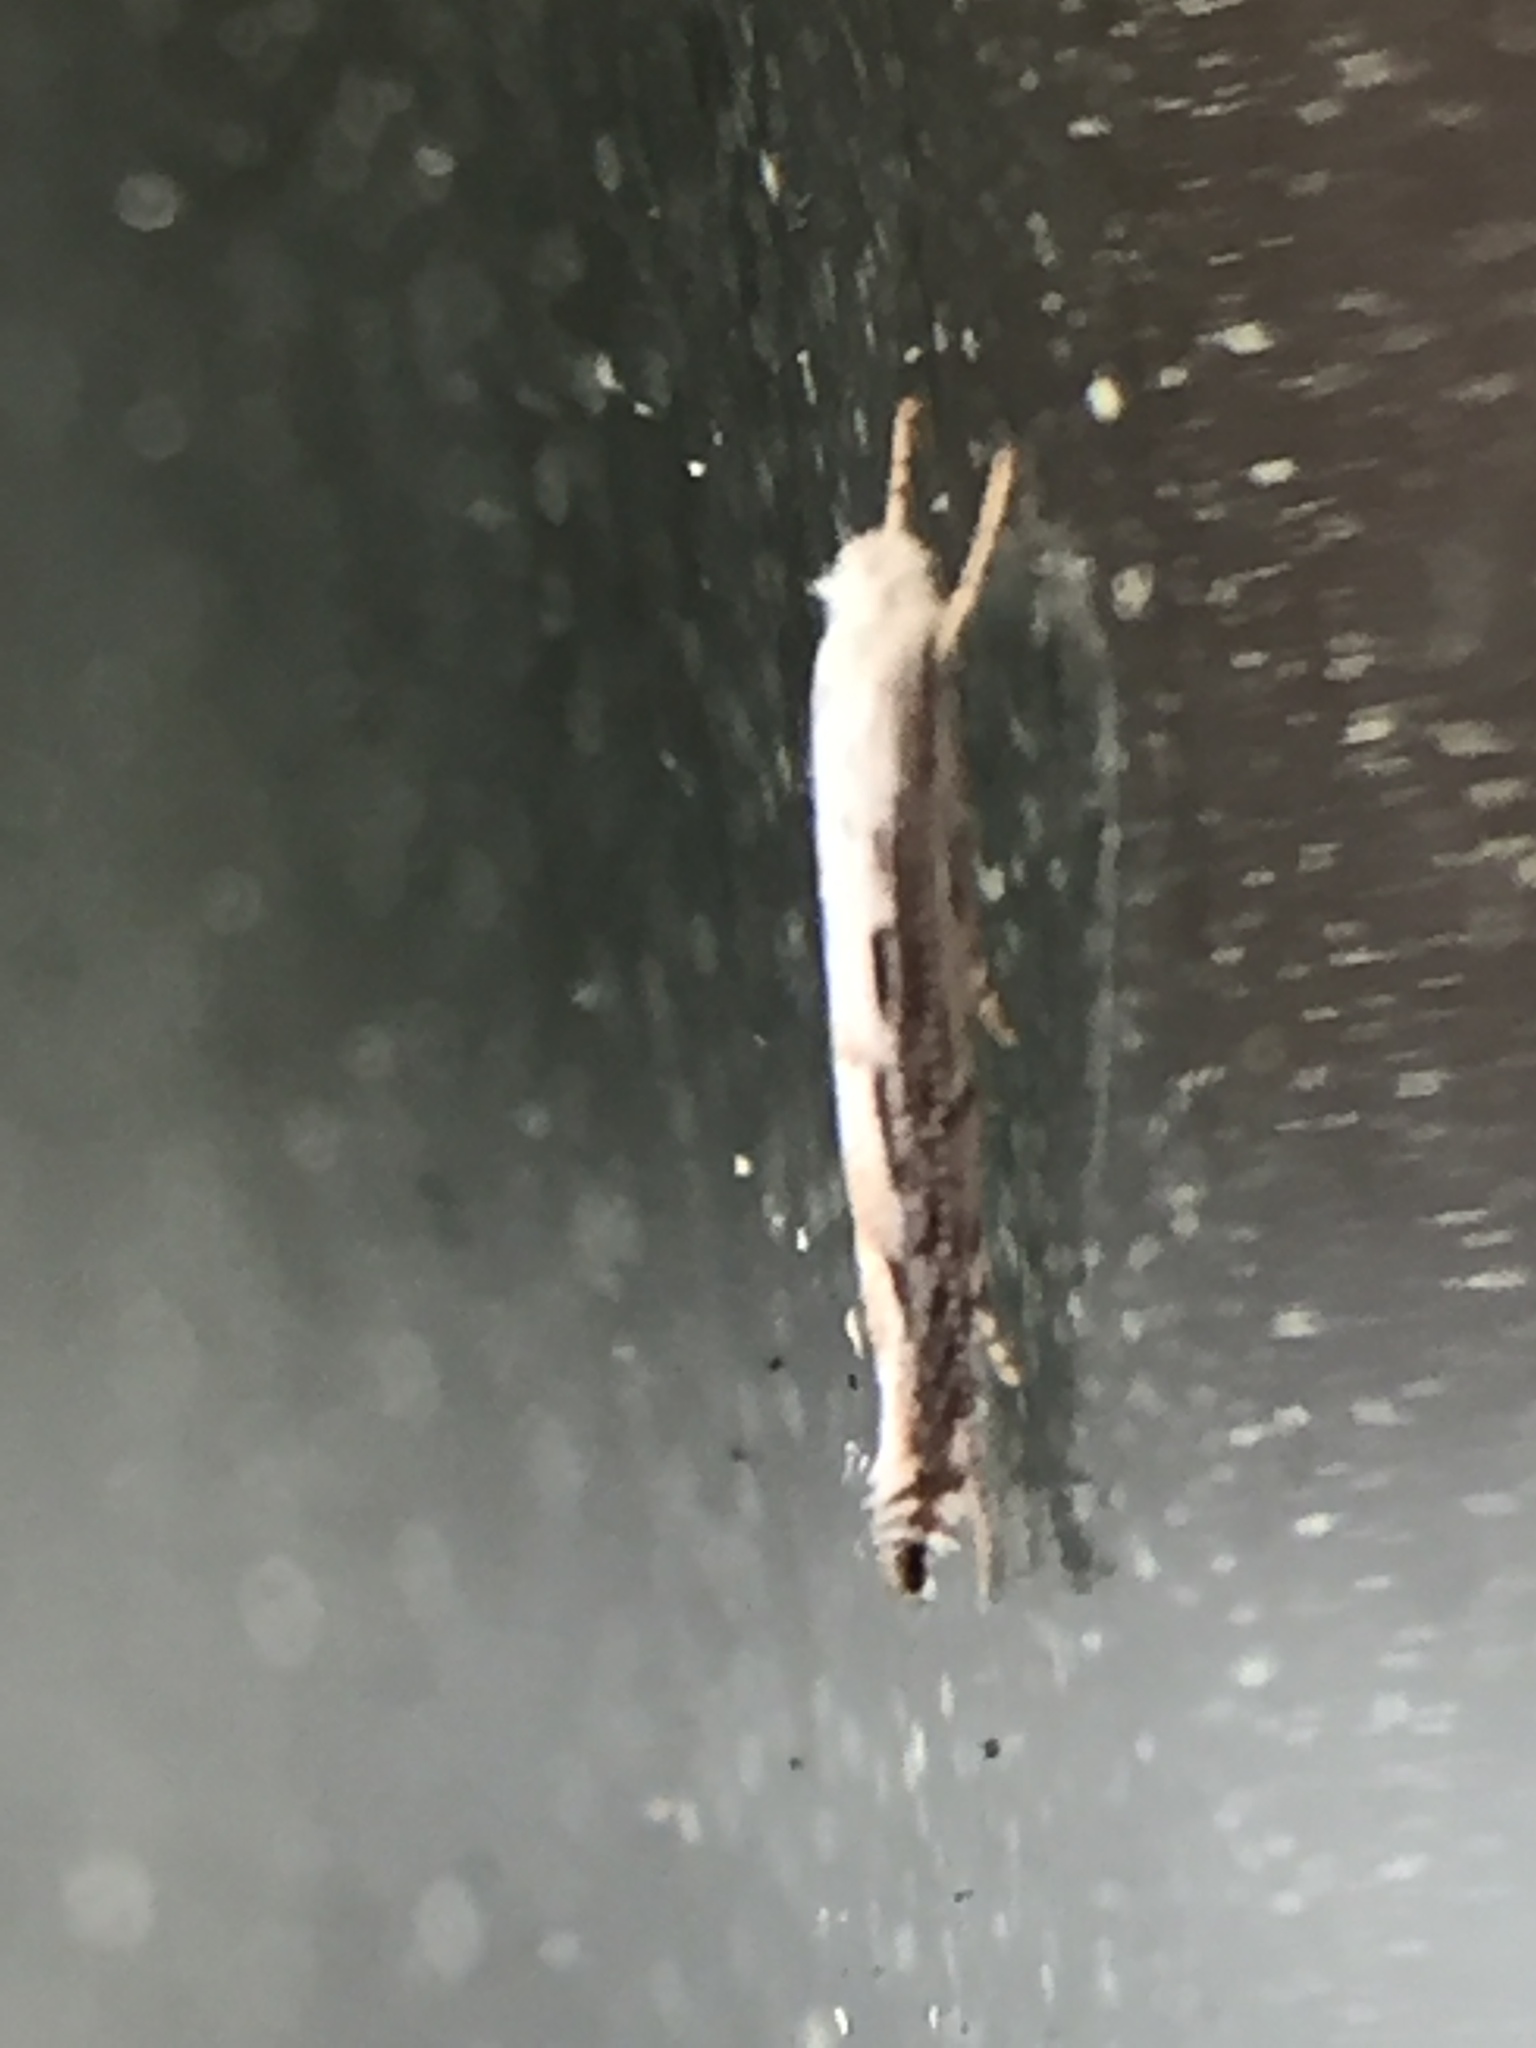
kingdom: Animalia
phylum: Arthropoda
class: Insecta
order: Lepidoptera
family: Lyonetiidae
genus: Stegommata
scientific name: Stegommata leptomitella
